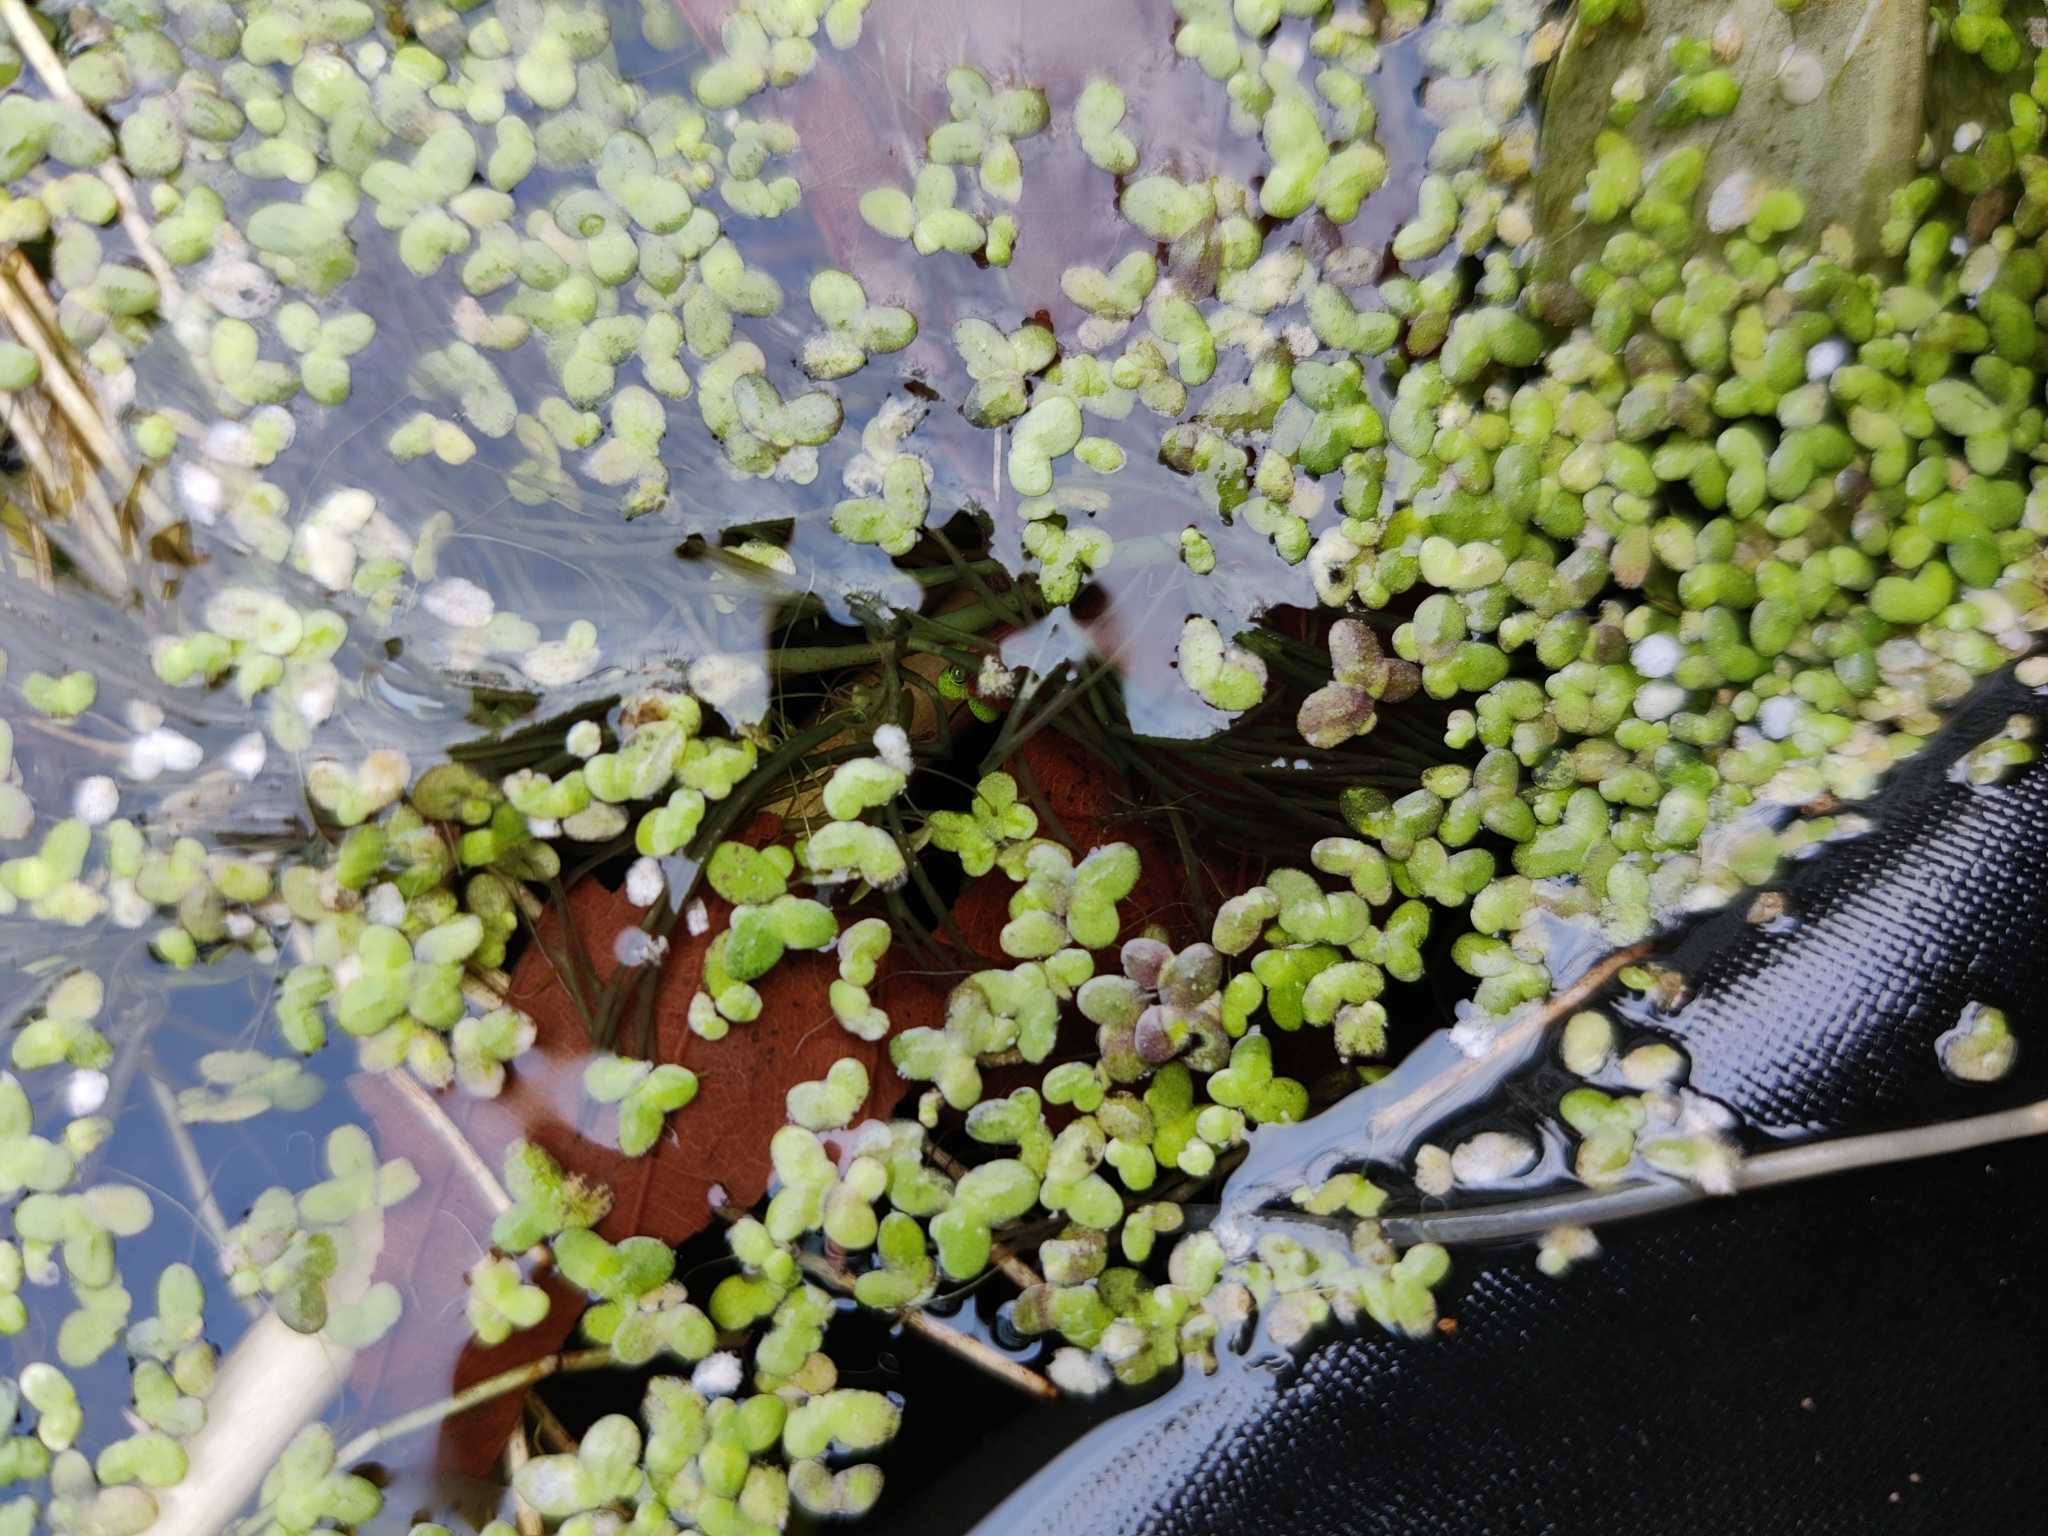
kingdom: Plantae
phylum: Tracheophyta
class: Liliopsida
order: Alismatales
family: Araceae
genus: Lemna
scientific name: Lemna minor
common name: Common duckweed
